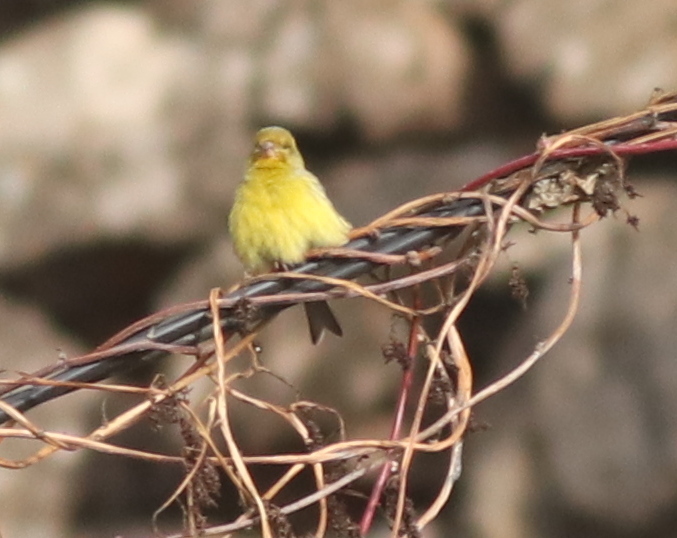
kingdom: Animalia
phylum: Chordata
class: Aves
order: Passeriformes
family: Fringillidae
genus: Serinus
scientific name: Serinus canaria
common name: Atlantic canary
